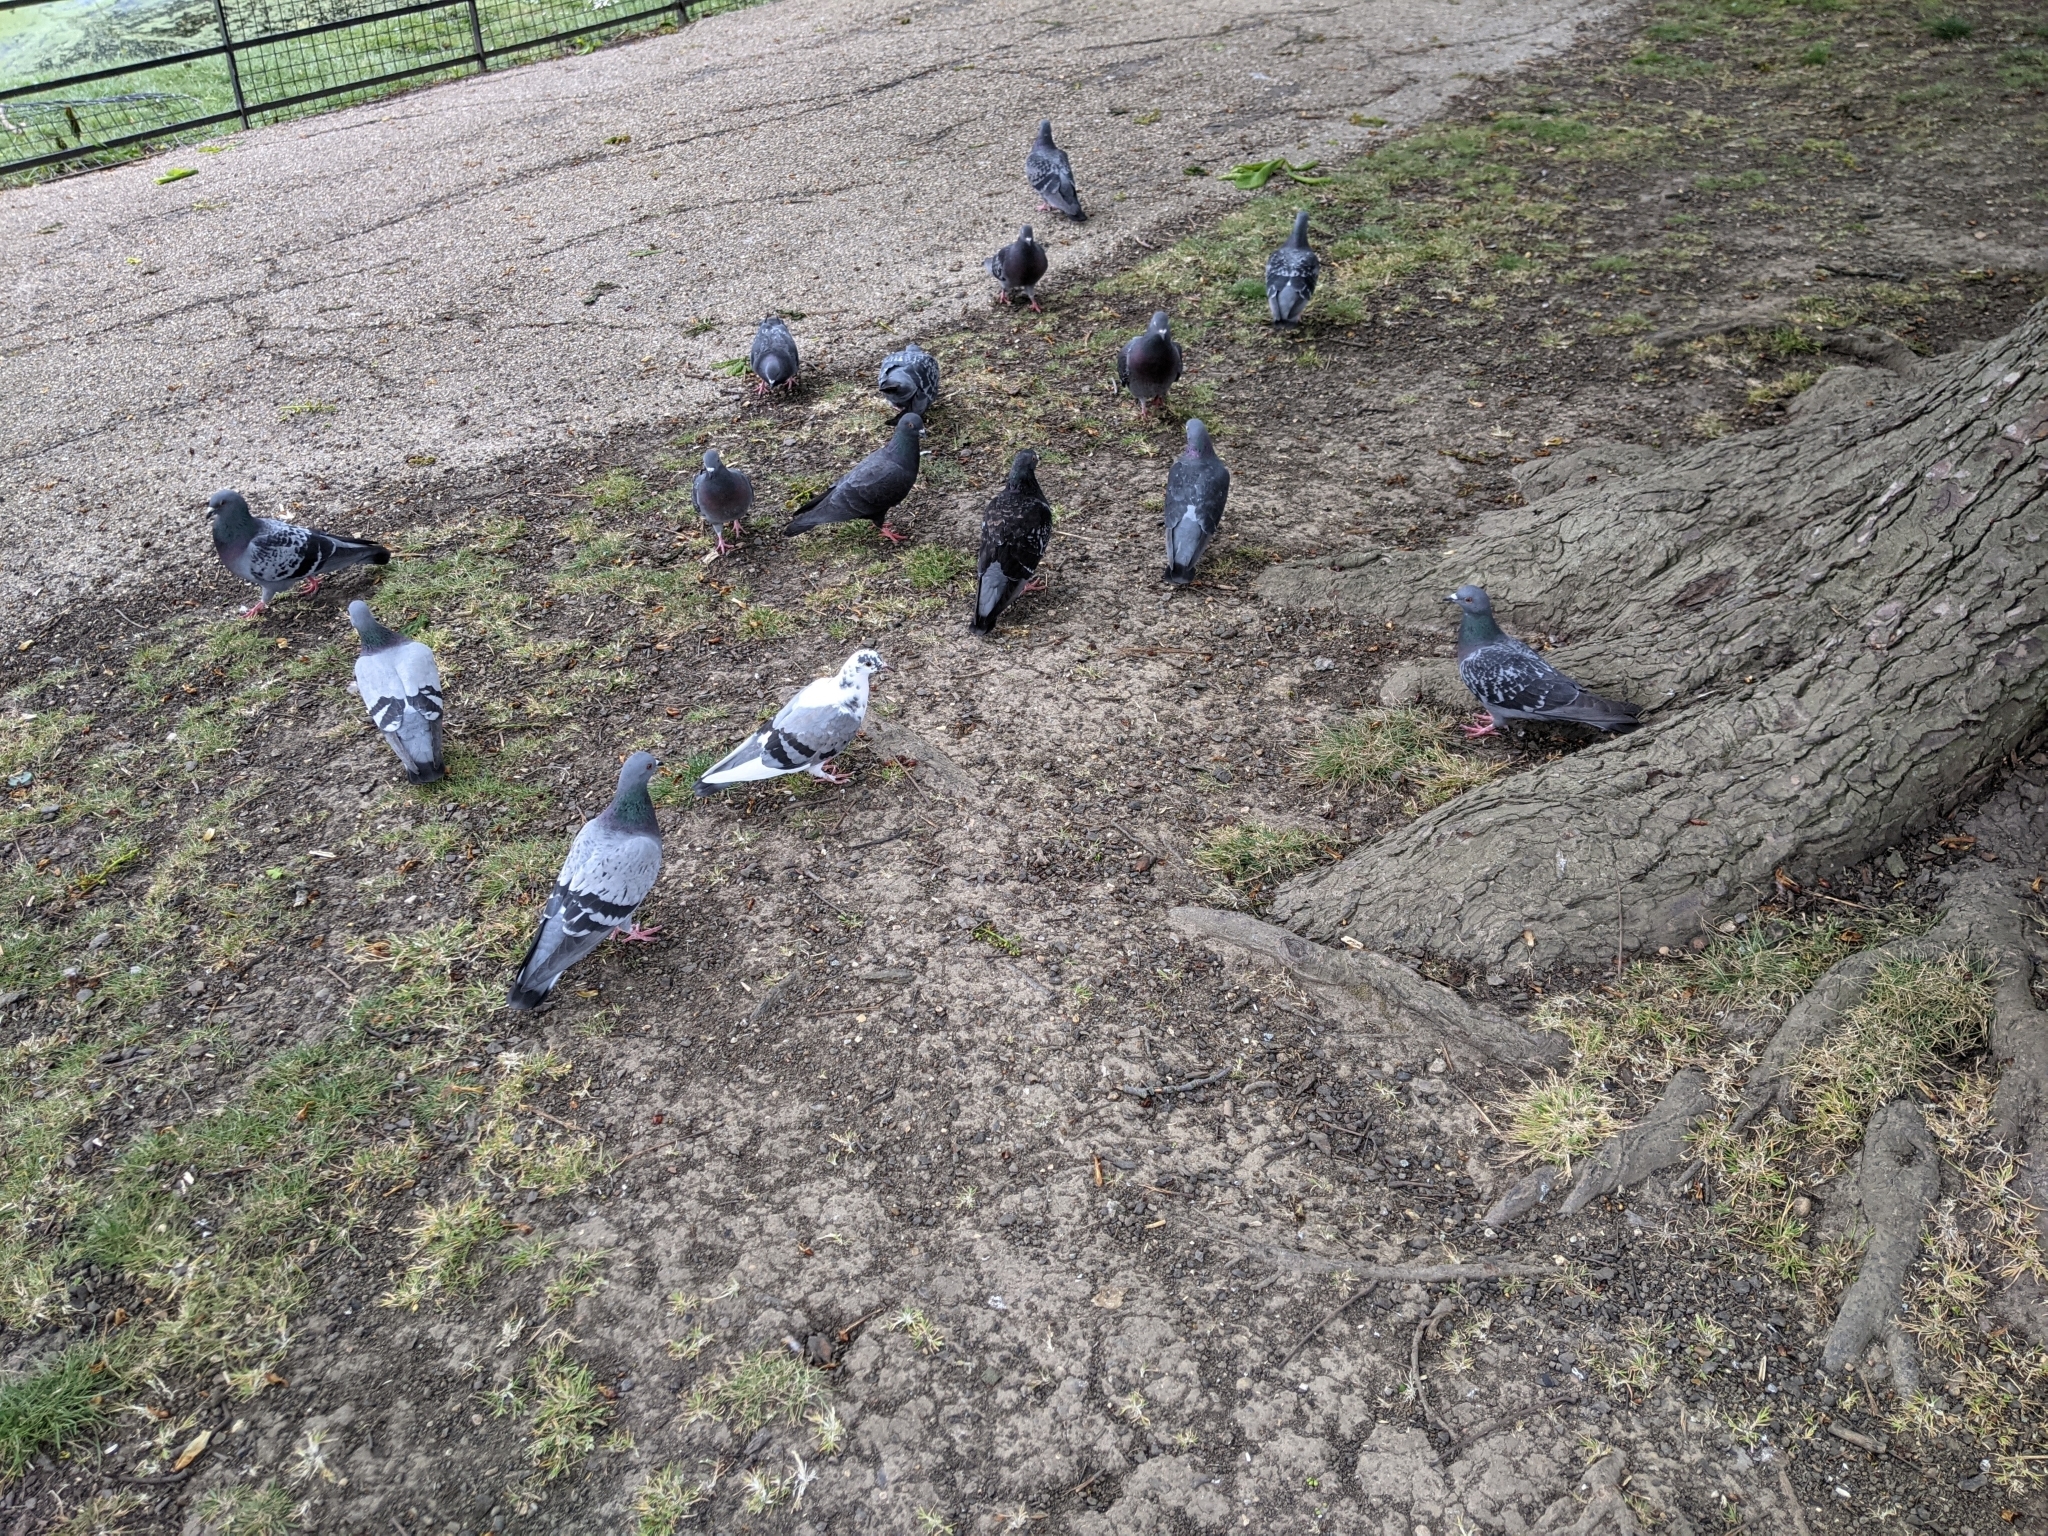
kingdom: Animalia
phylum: Chordata
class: Aves
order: Columbiformes
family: Columbidae
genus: Columba
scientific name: Columba livia
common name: Rock pigeon
